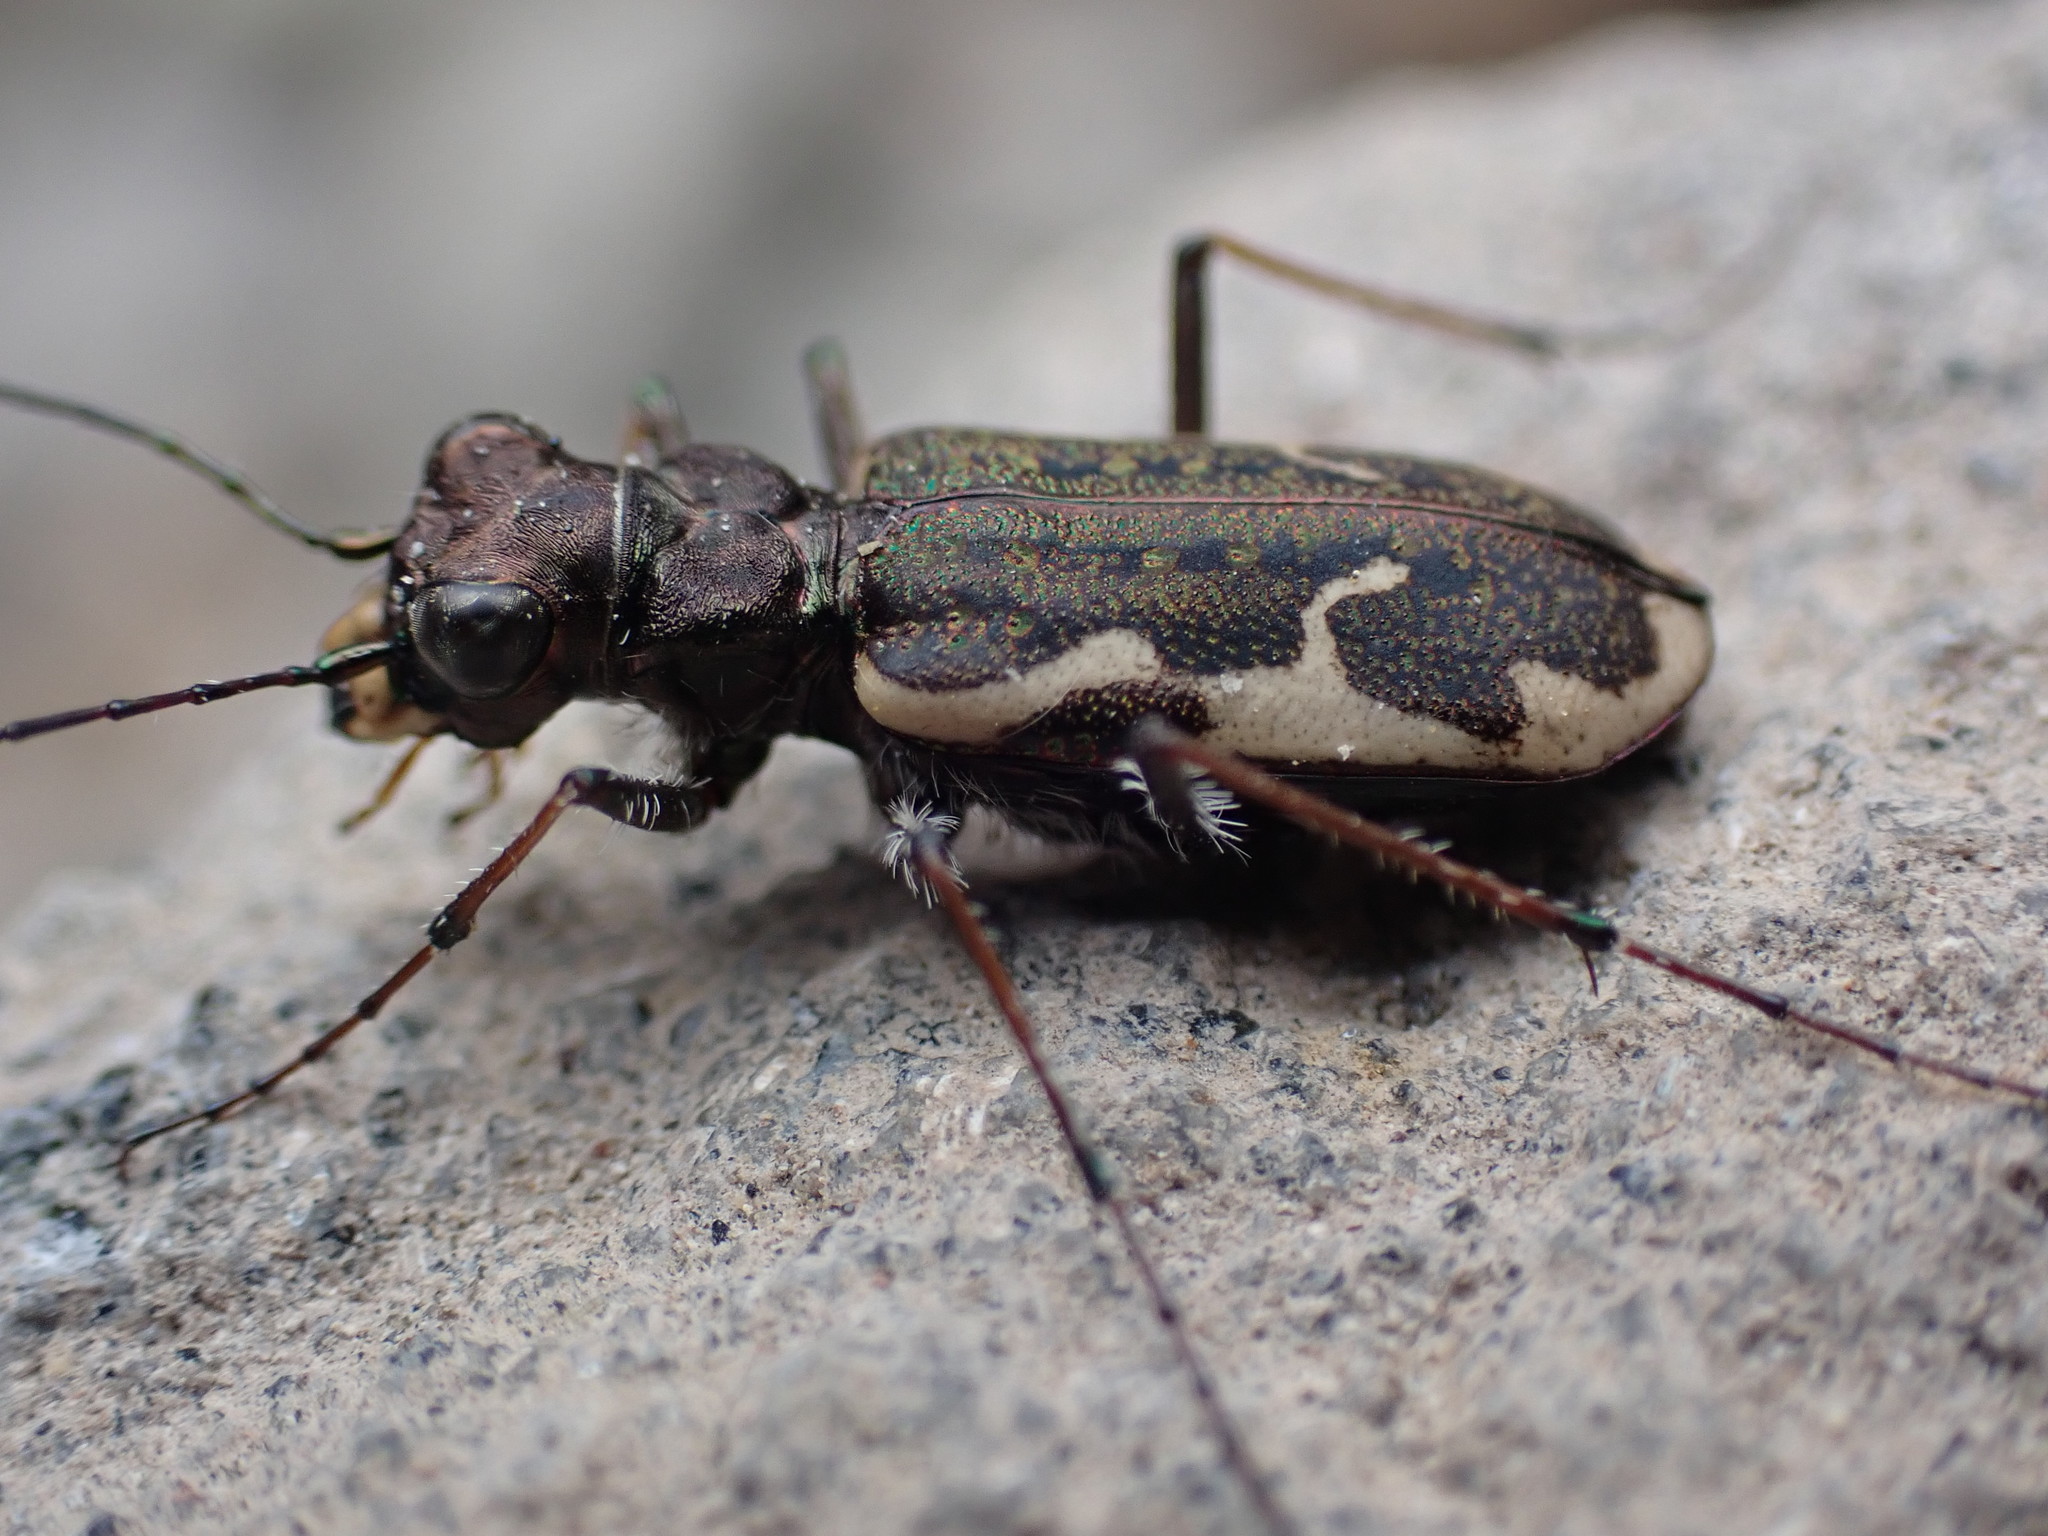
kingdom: Animalia
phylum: Arthropoda
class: Insecta
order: Coleoptera
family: Carabidae
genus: Neocicindela
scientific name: Neocicindela tuberculata
